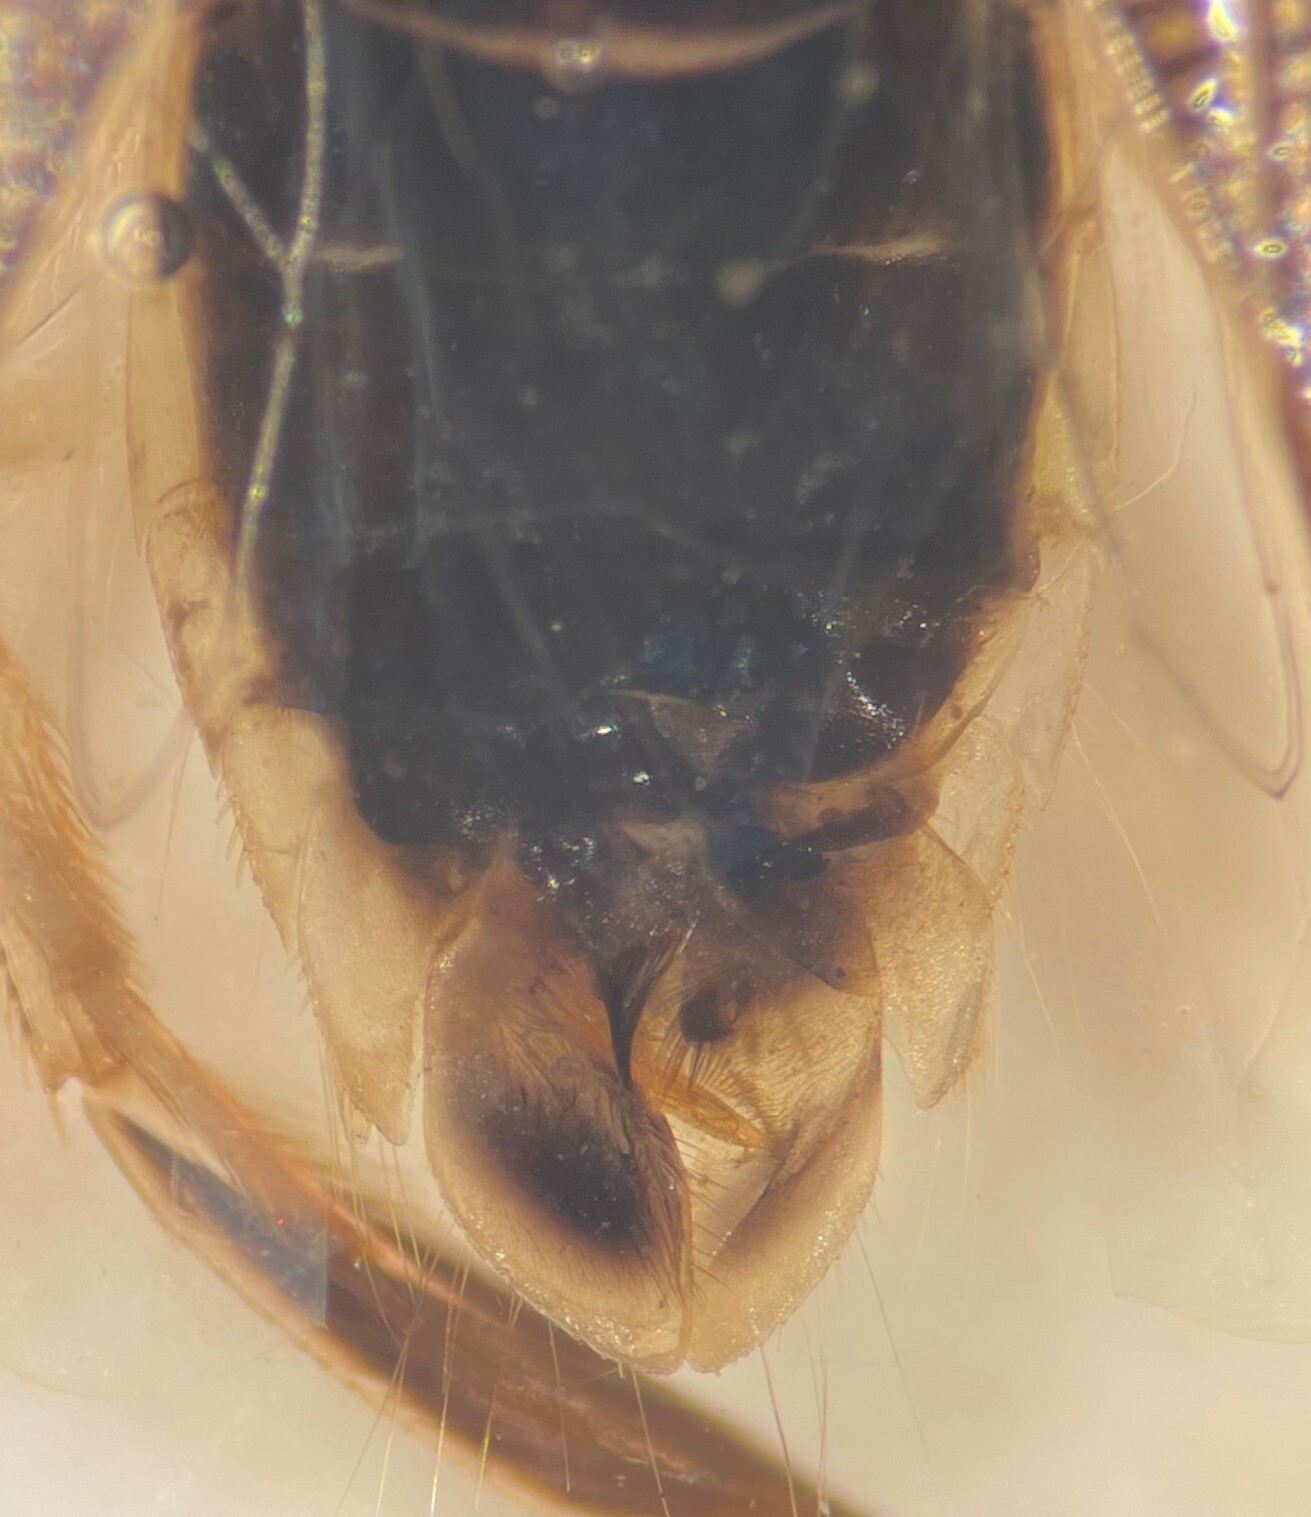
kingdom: Animalia
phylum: Arthropoda
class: Insecta
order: Hemiptera
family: Corixidae
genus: Sigara
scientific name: Sigara mullettensis
